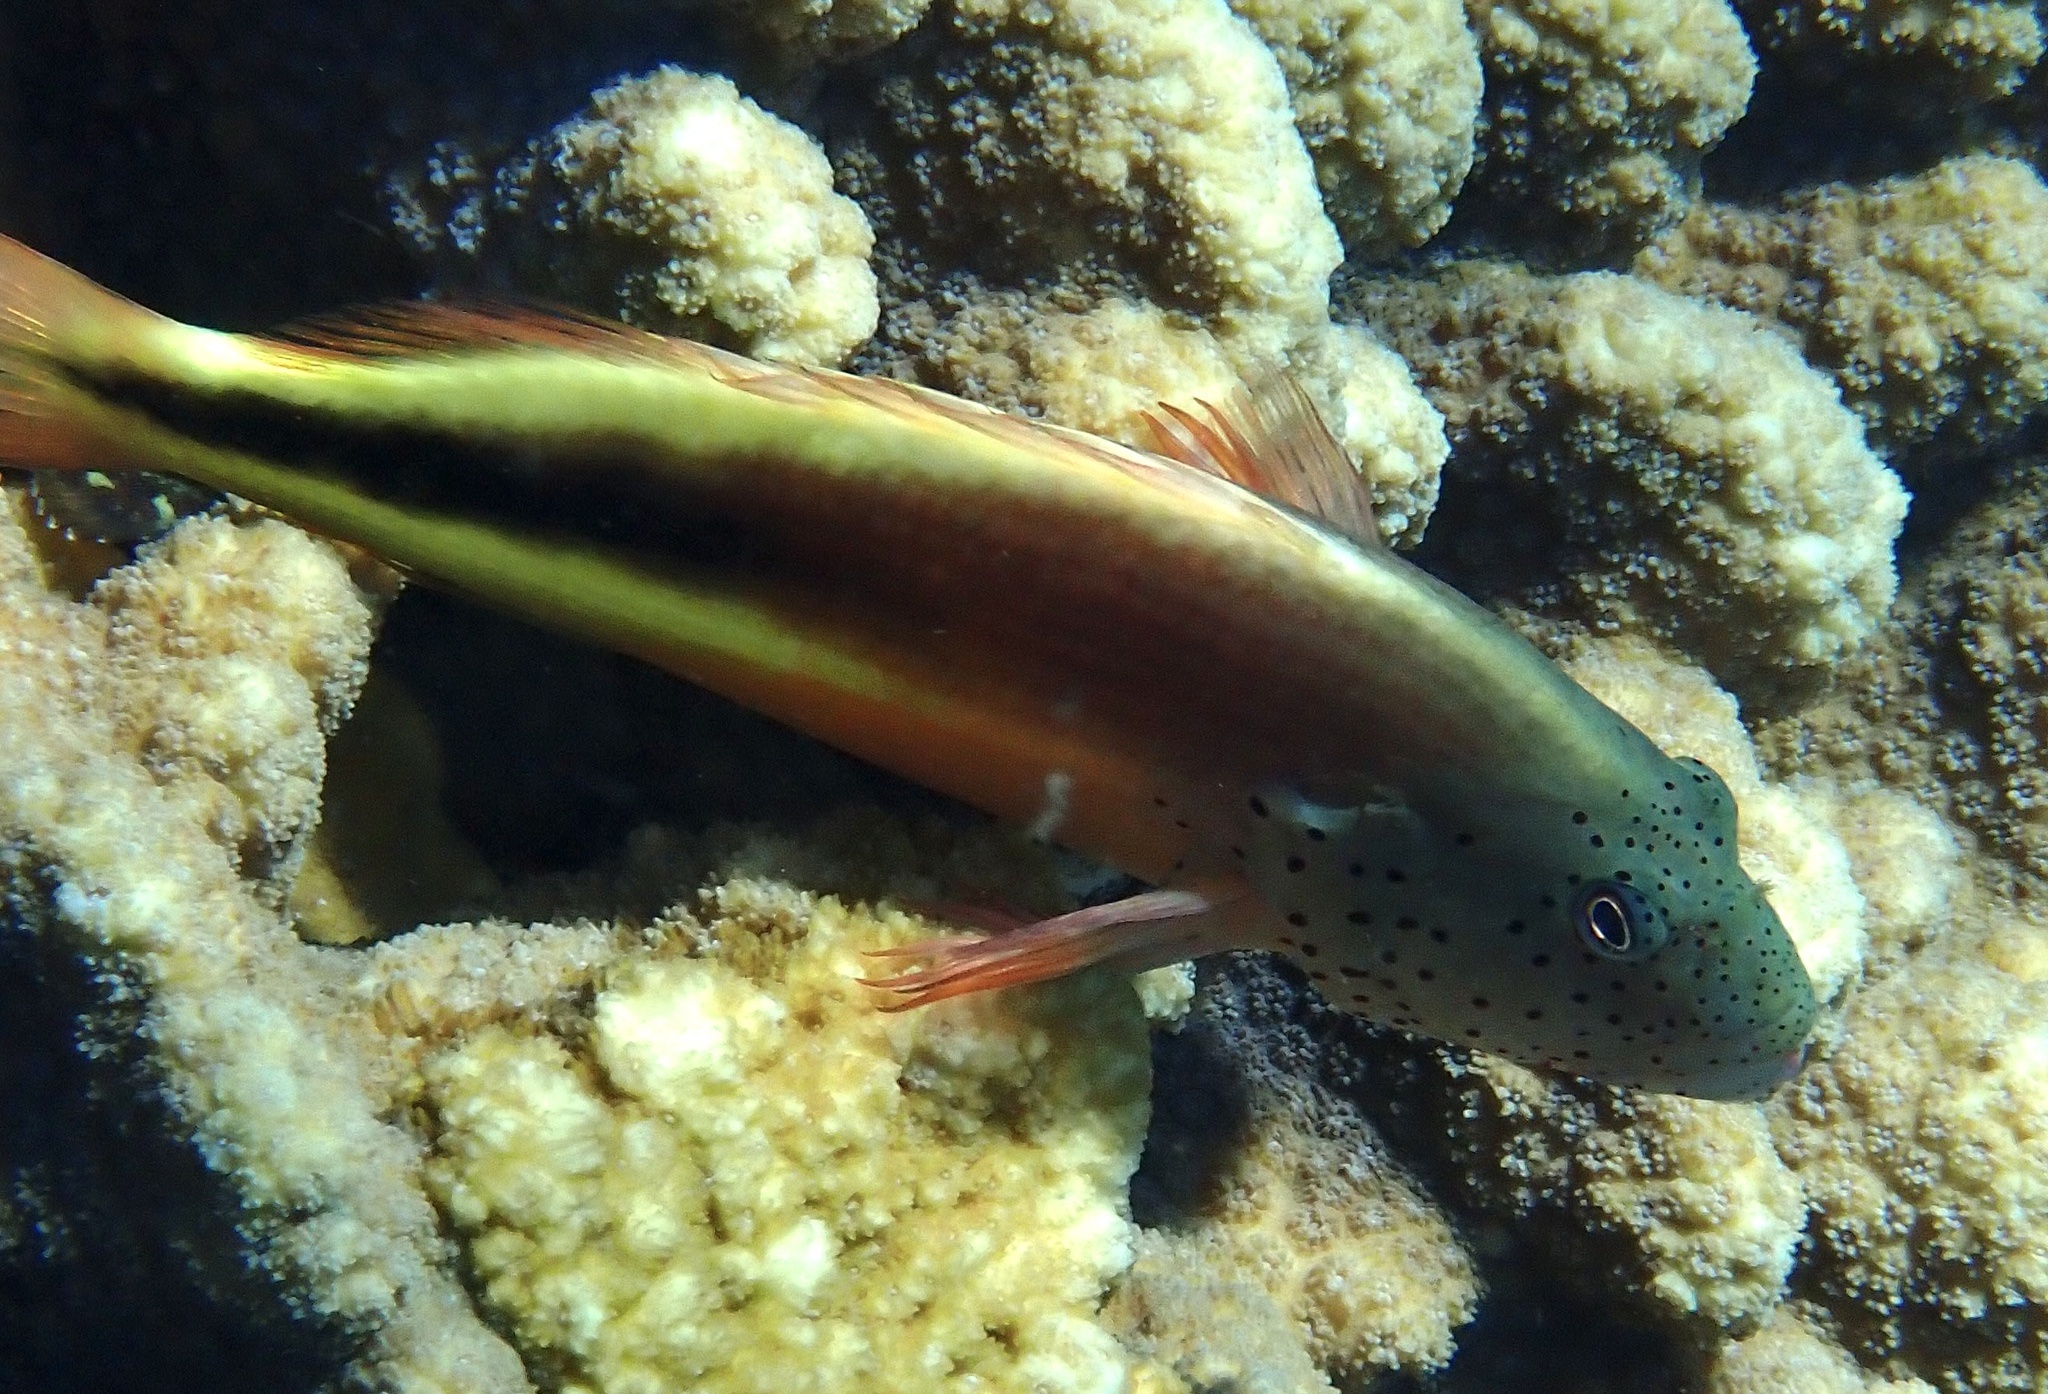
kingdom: Animalia
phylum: Chordata
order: Perciformes
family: Cirrhitidae
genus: Paracirrhites
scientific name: Paracirrhites forsteri
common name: Freckled hawkfish
